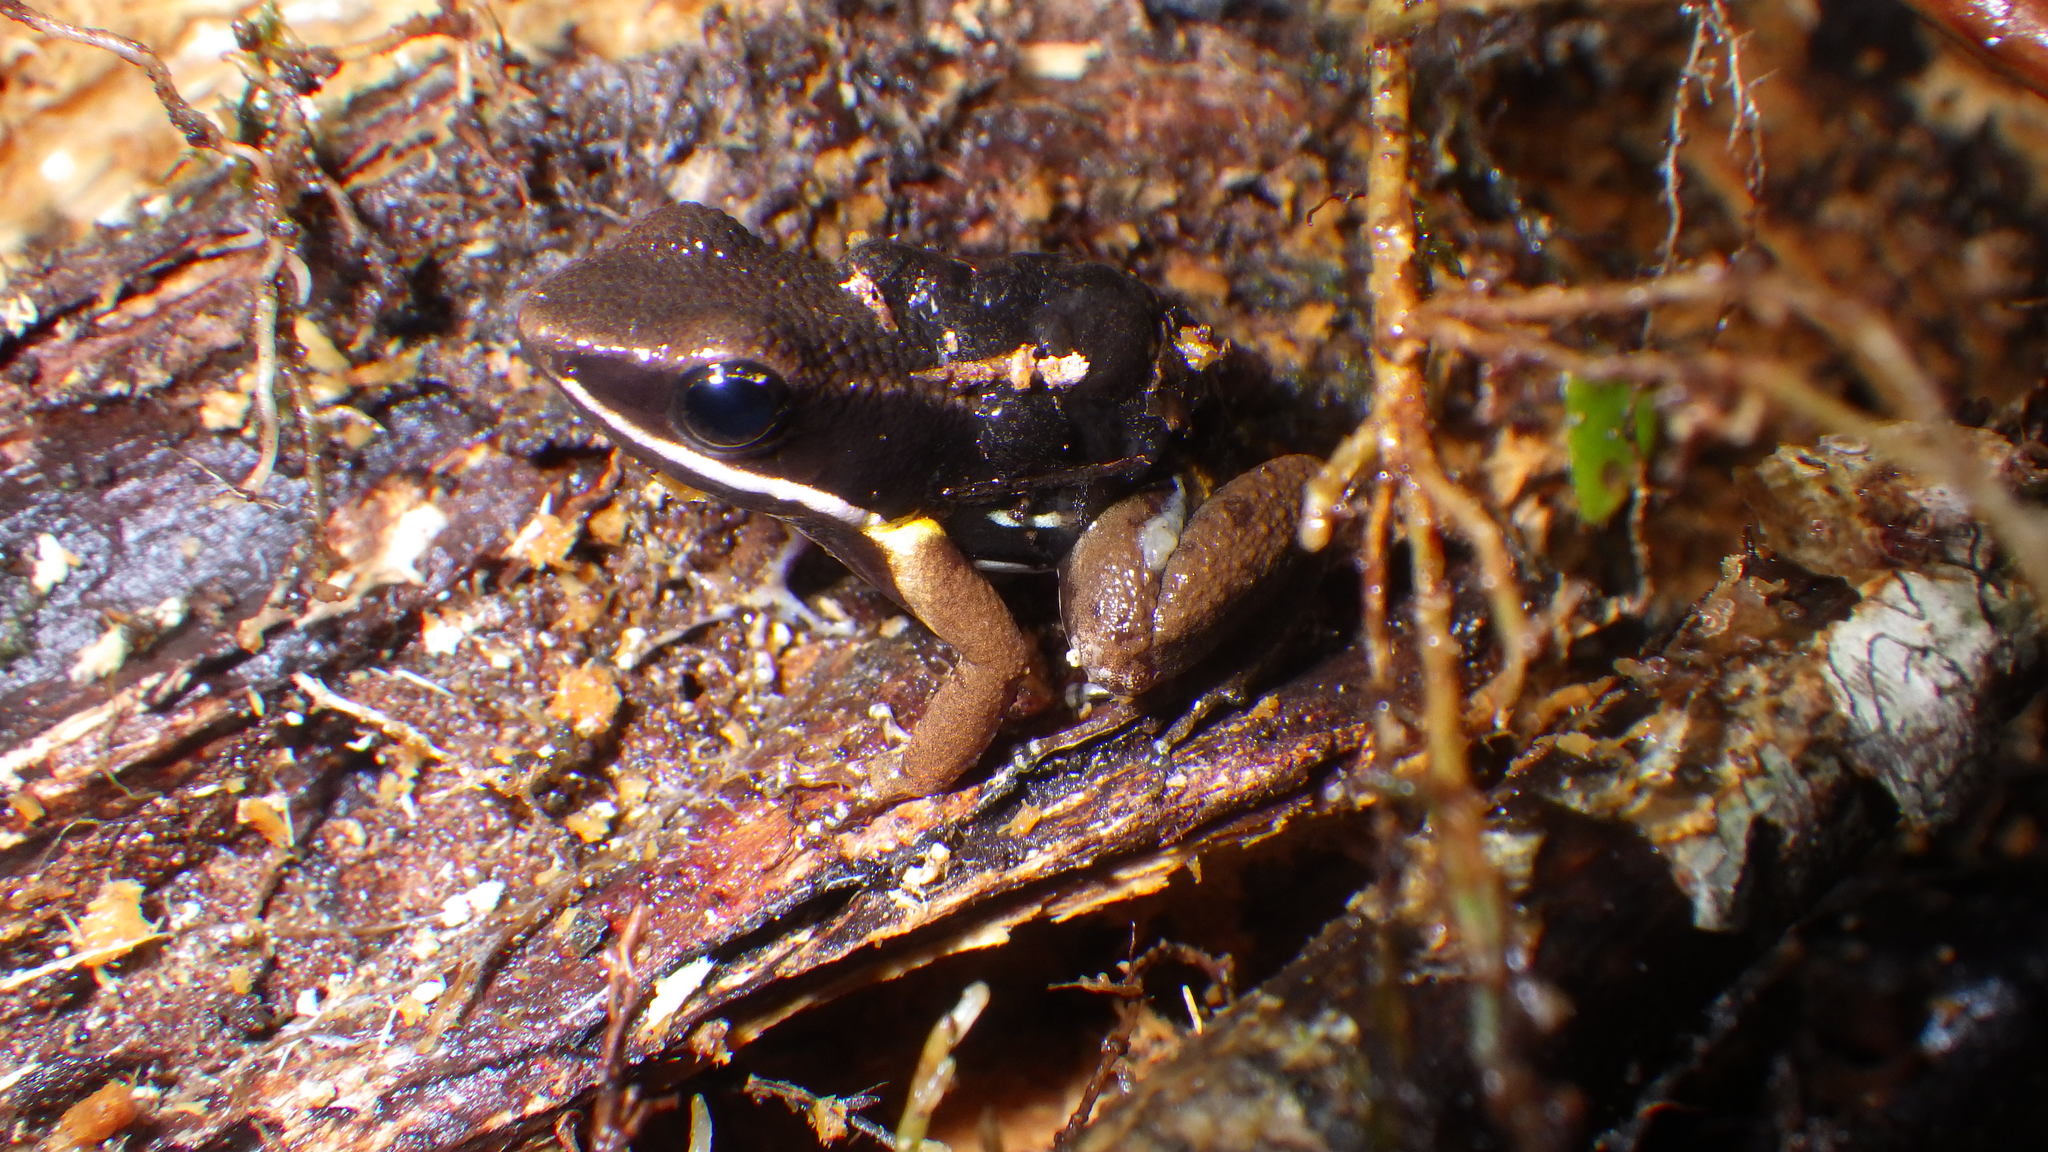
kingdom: Animalia
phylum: Chordata
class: Amphibia
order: Anura
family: Aromobatidae
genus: Allobates
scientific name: Allobates femoralis
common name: Brilliant-thighed poison frog
